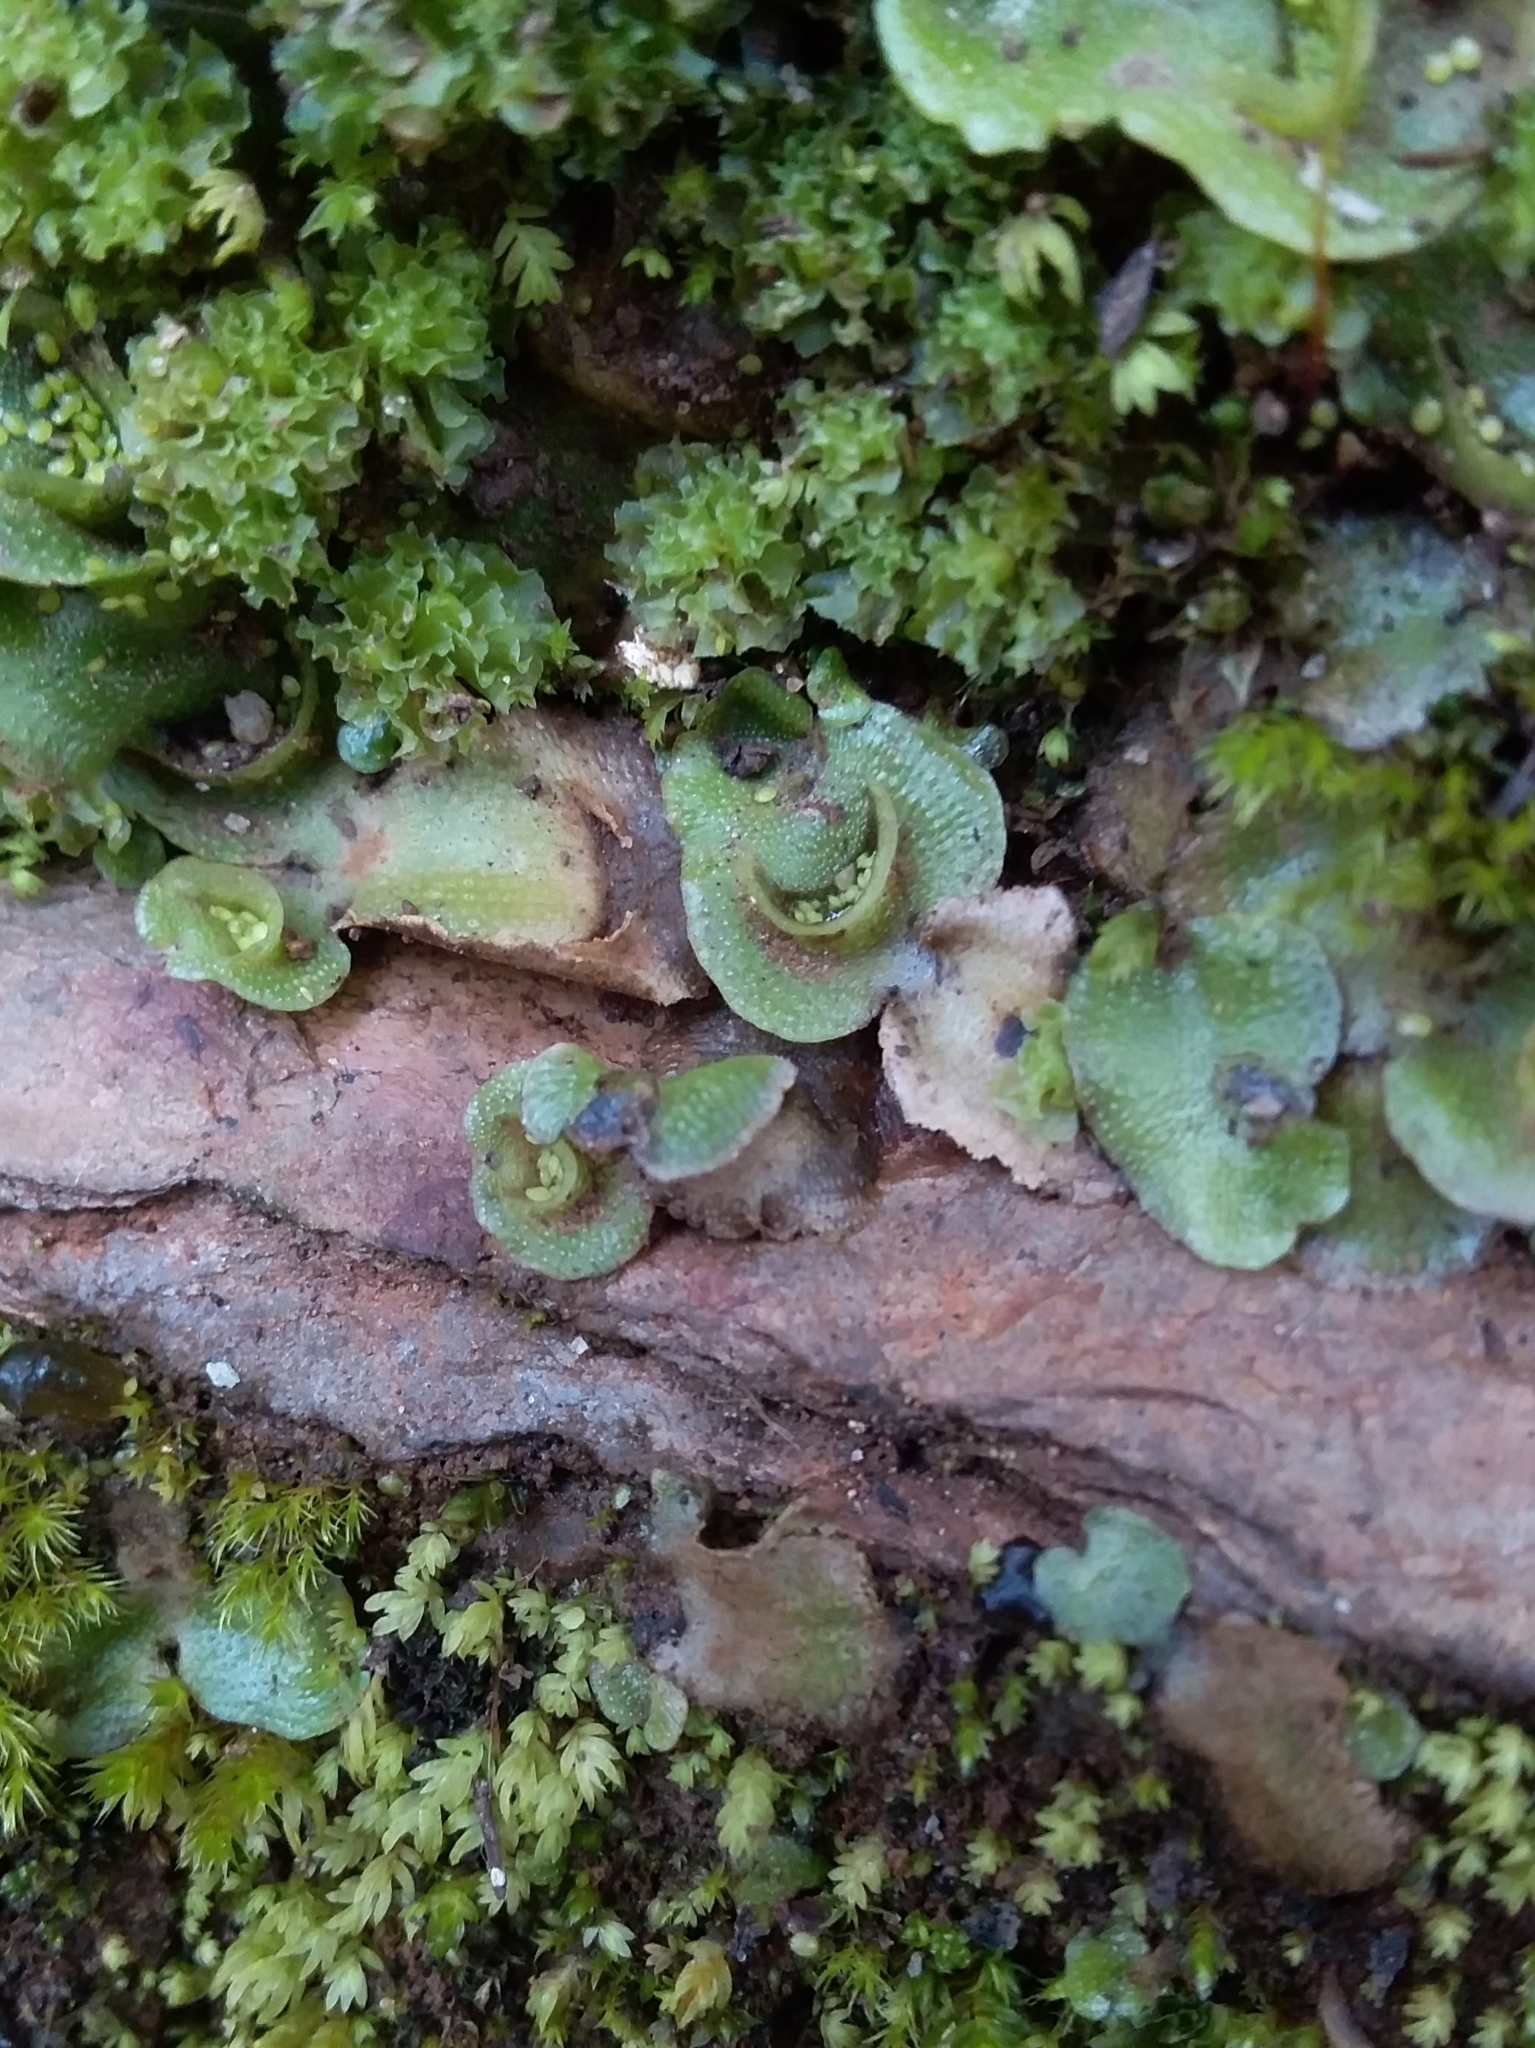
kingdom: Plantae
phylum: Marchantiophyta
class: Marchantiopsida
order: Lunulariales
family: Lunulariaceae
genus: Lunularia
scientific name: Lunularia cruciata
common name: Crescent-cup liverwort
